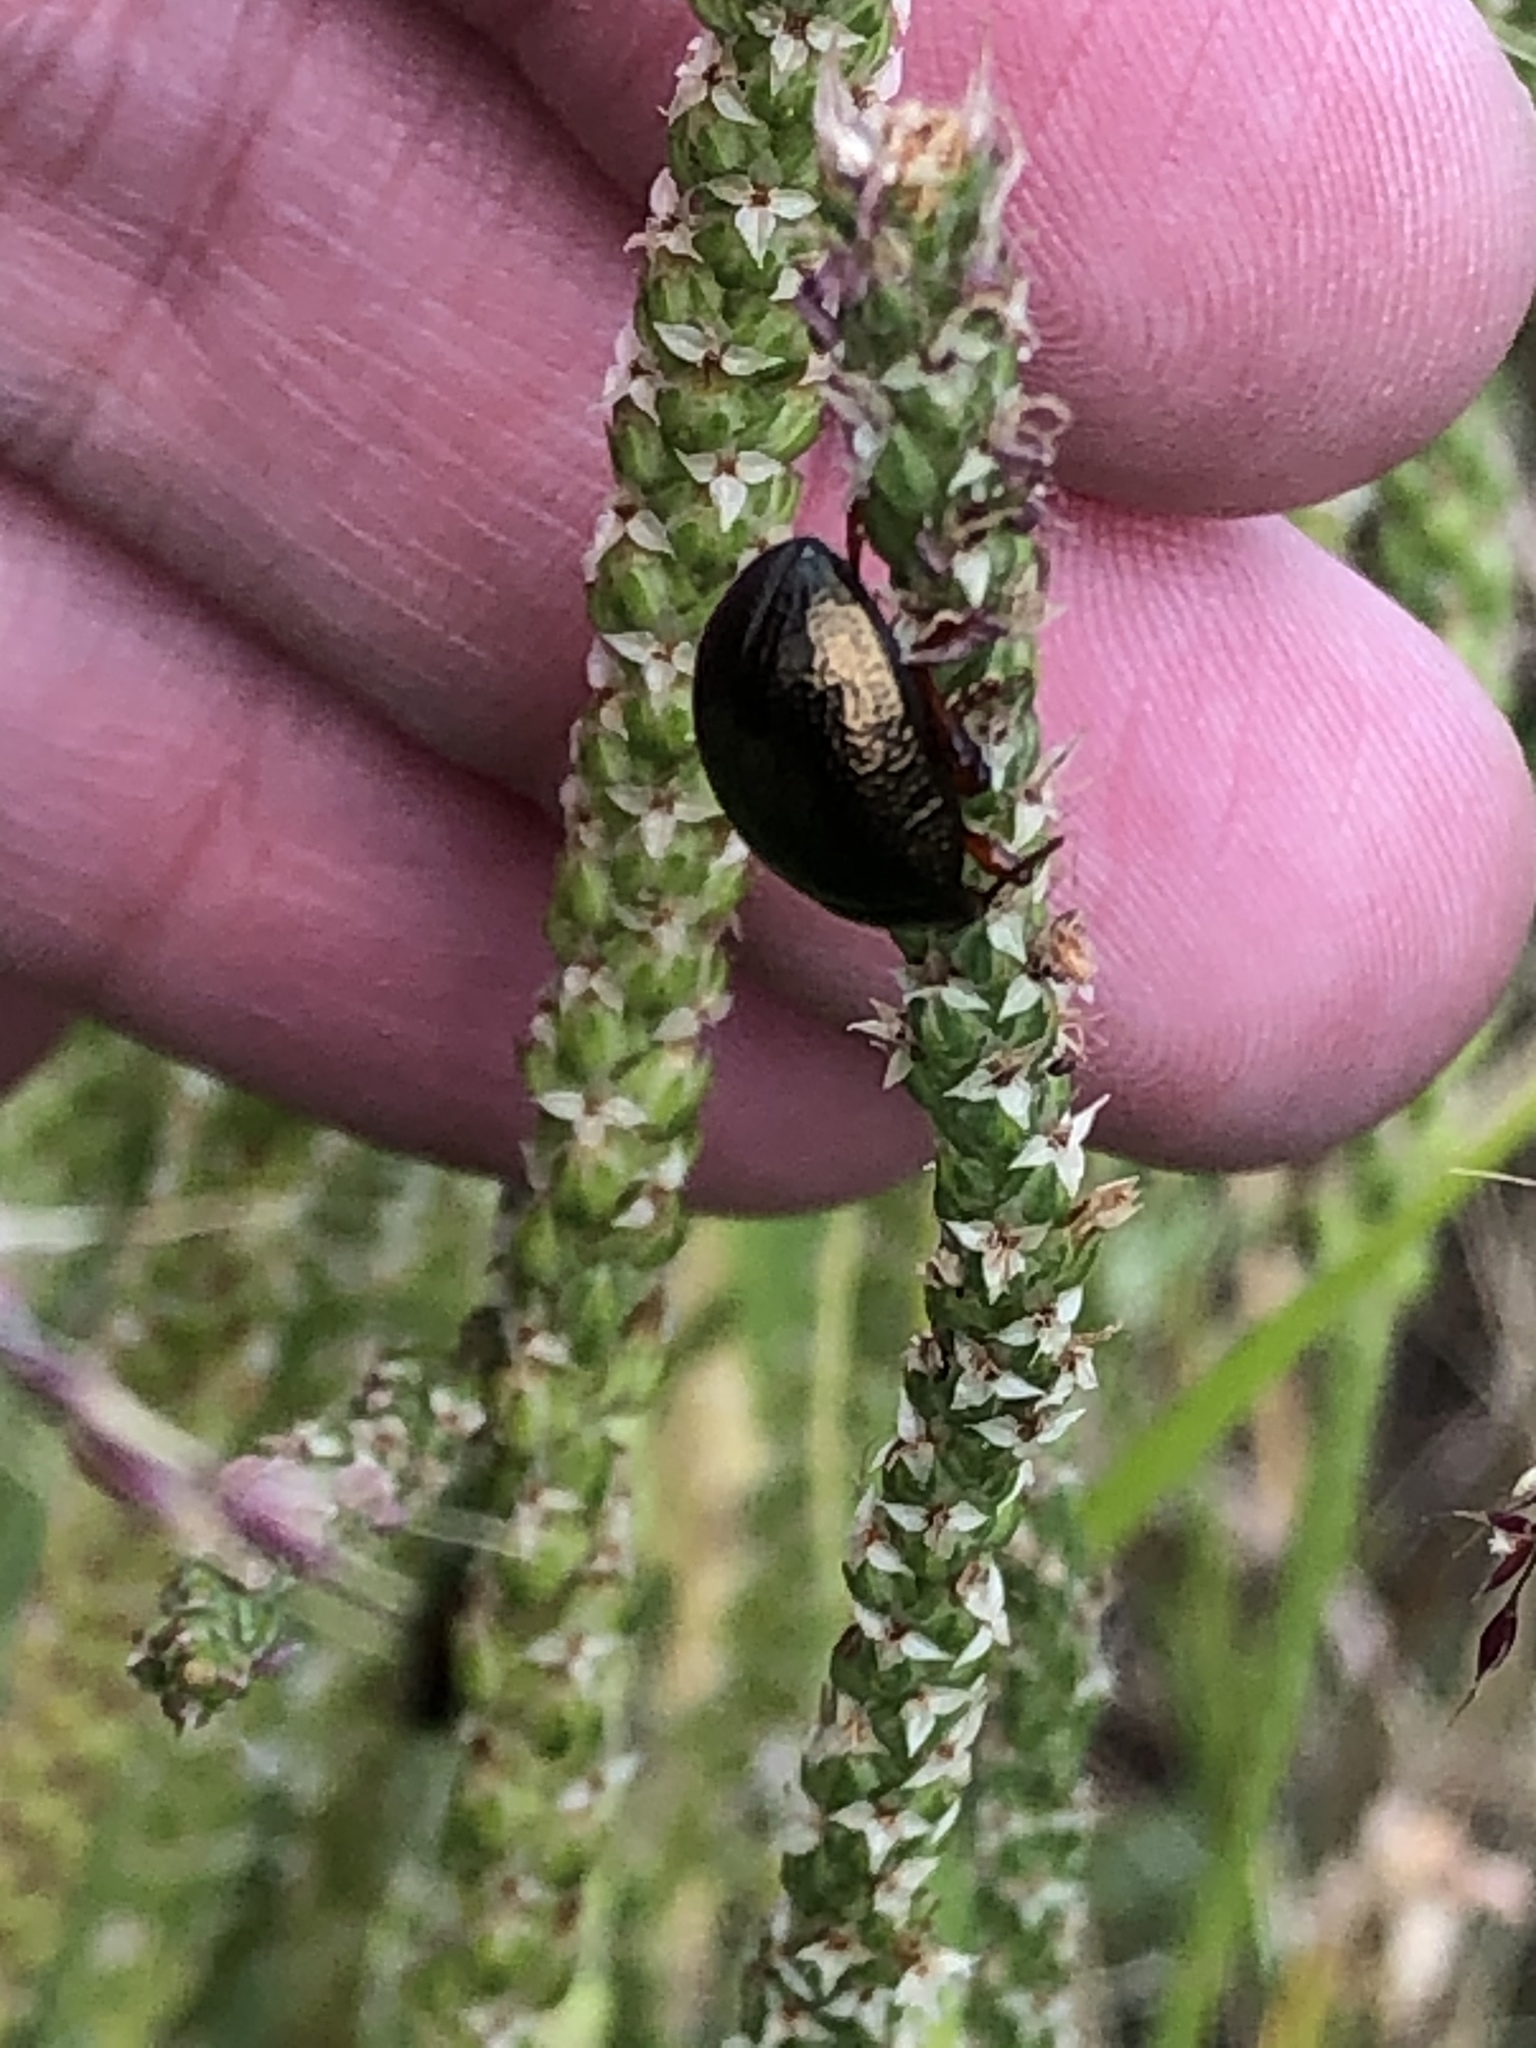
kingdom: Animalia
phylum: Arthropoda
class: Insecta
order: Coleoptera
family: Chrysomelidae
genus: Chrysolina
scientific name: Chrysolina bankii
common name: Leaf beetle
